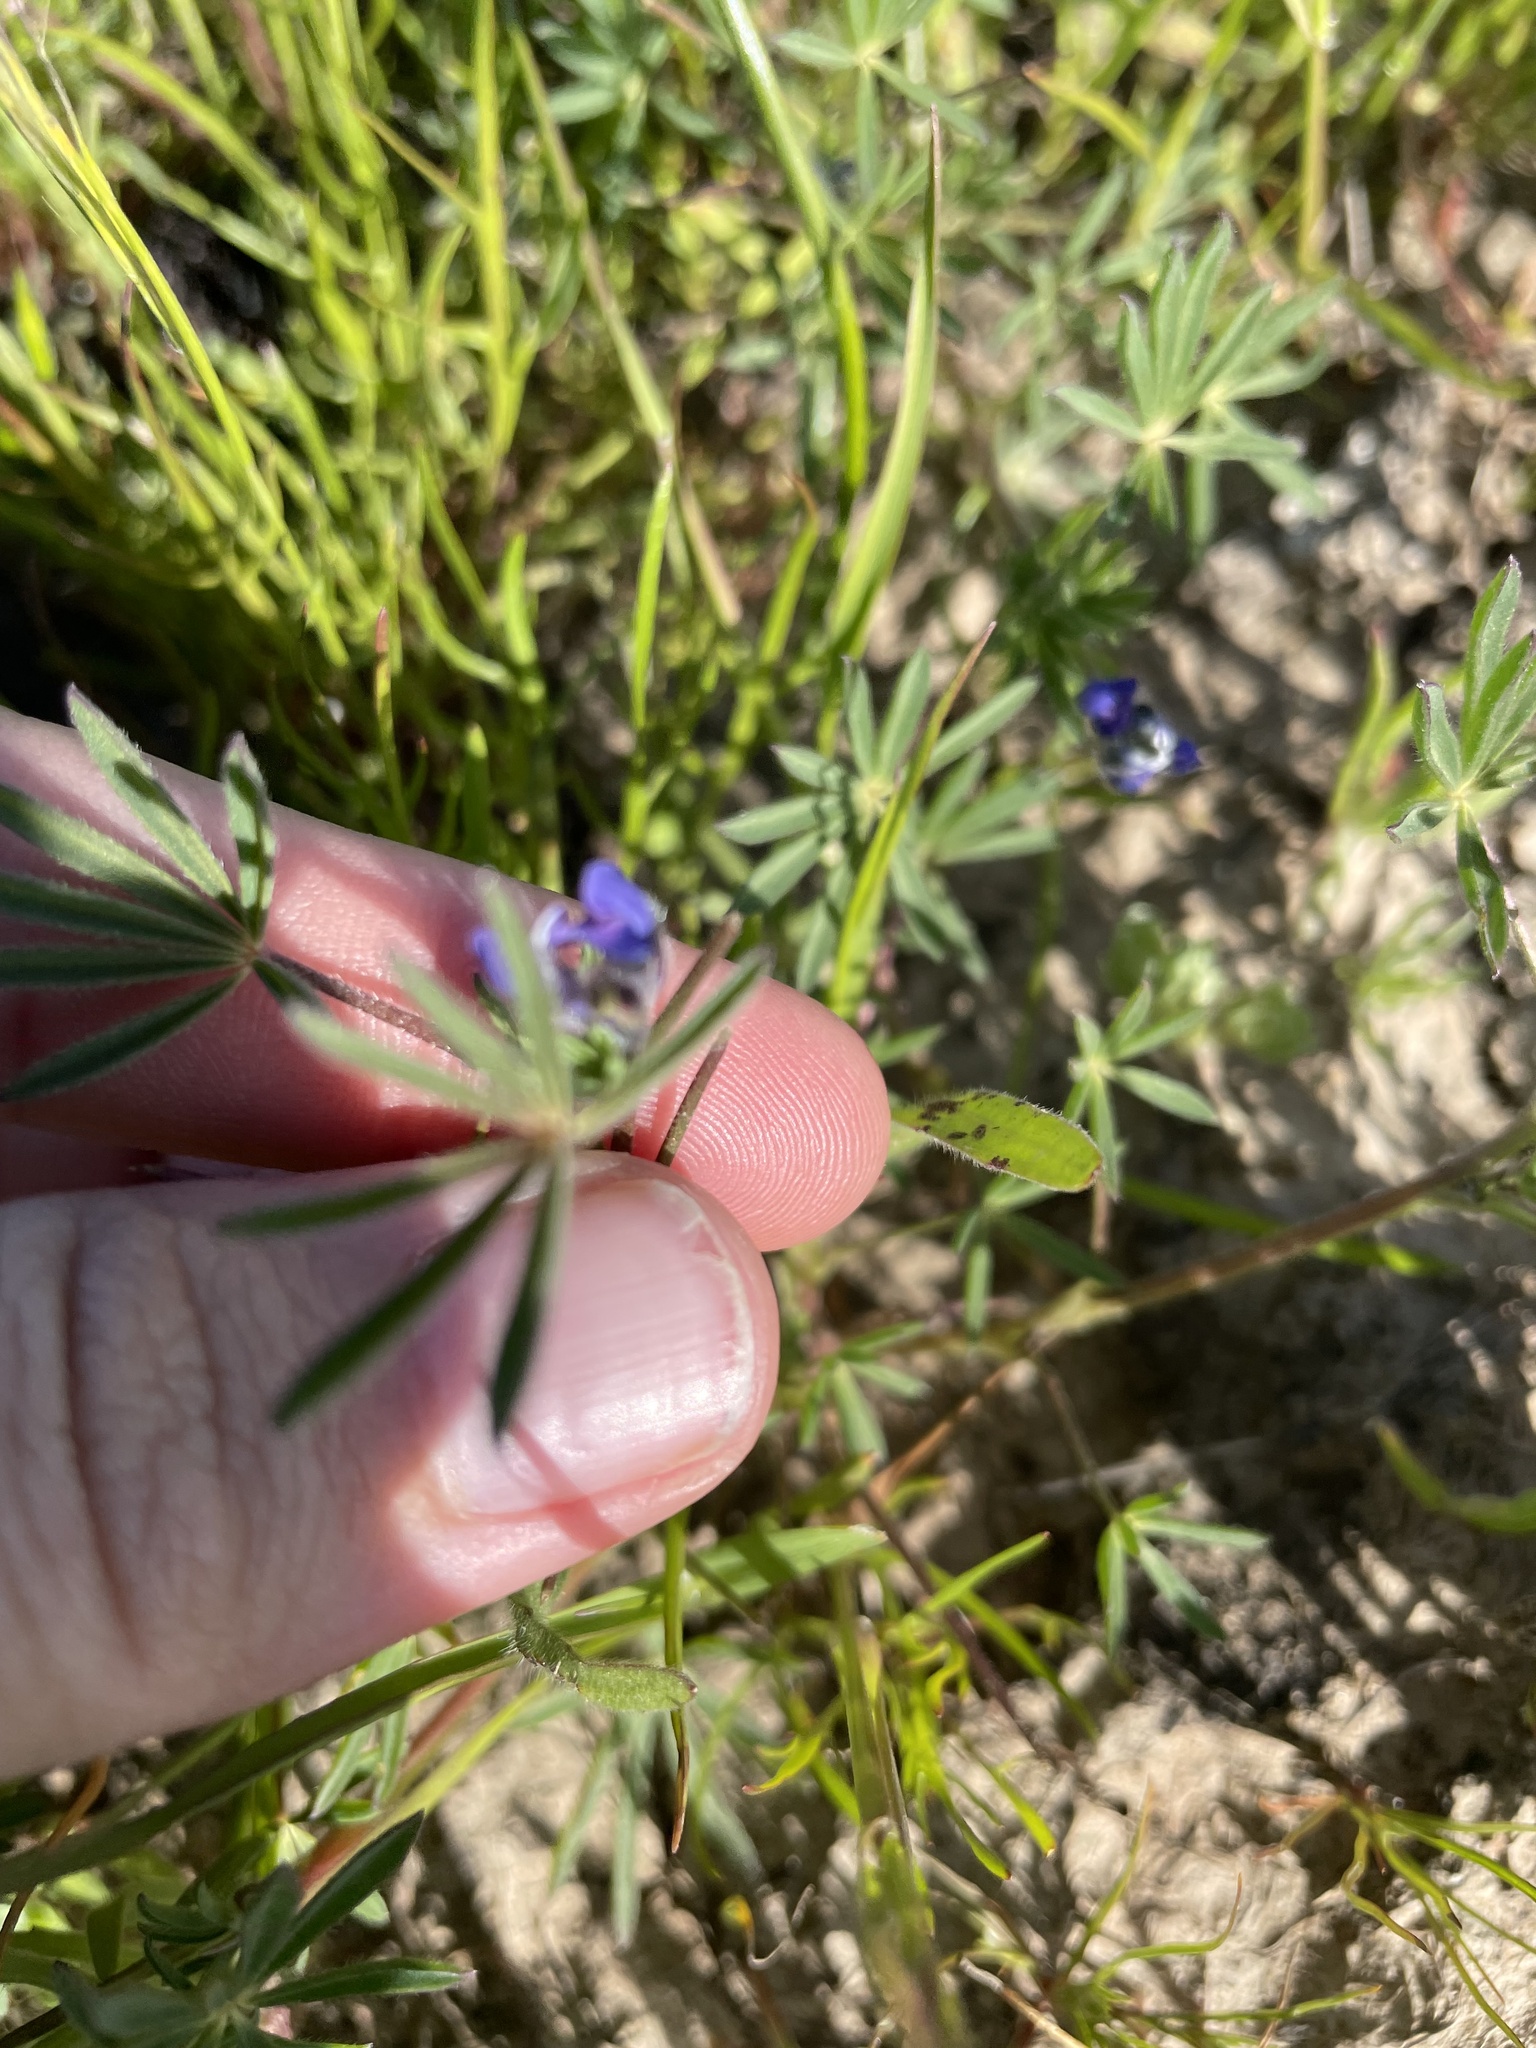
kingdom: Plantae
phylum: Tracheophyta
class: Magnoliopsida
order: Fabales
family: Fabaceae
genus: Lupinus
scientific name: Lupinus bicolor
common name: Miniature lupine
